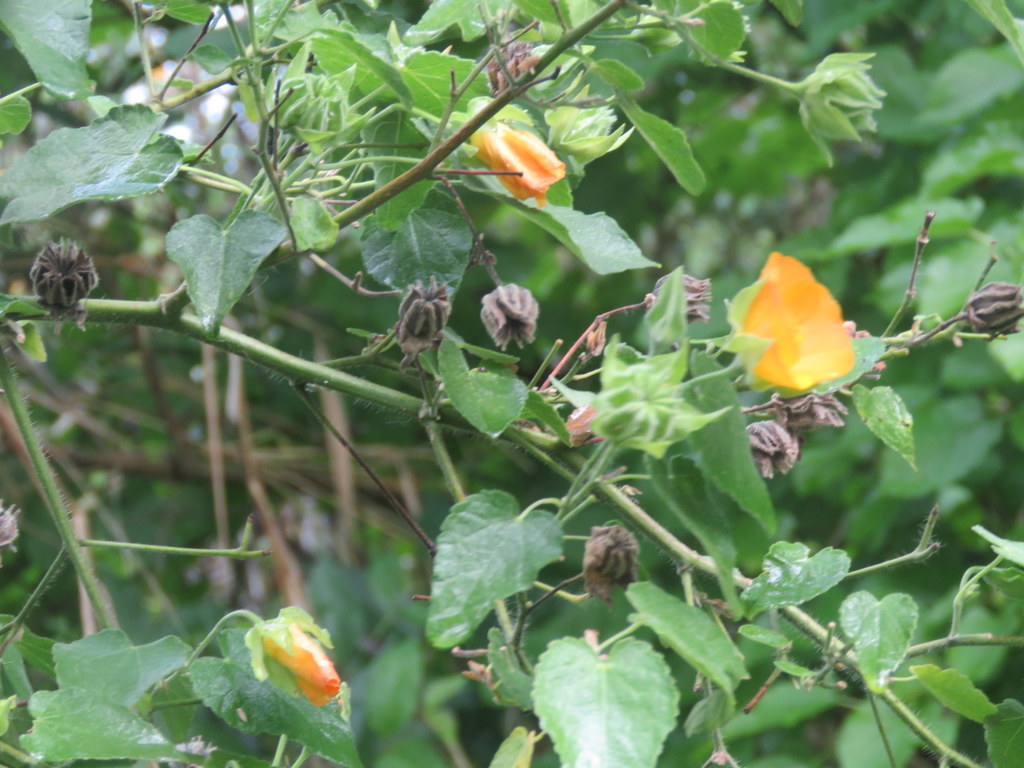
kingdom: Plantae
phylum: Tracheophyta
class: Magnoliopsida
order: Malvales
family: Malvaceae
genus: Abutilon
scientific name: Abutilon grandifolium
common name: Hairy abutilon
